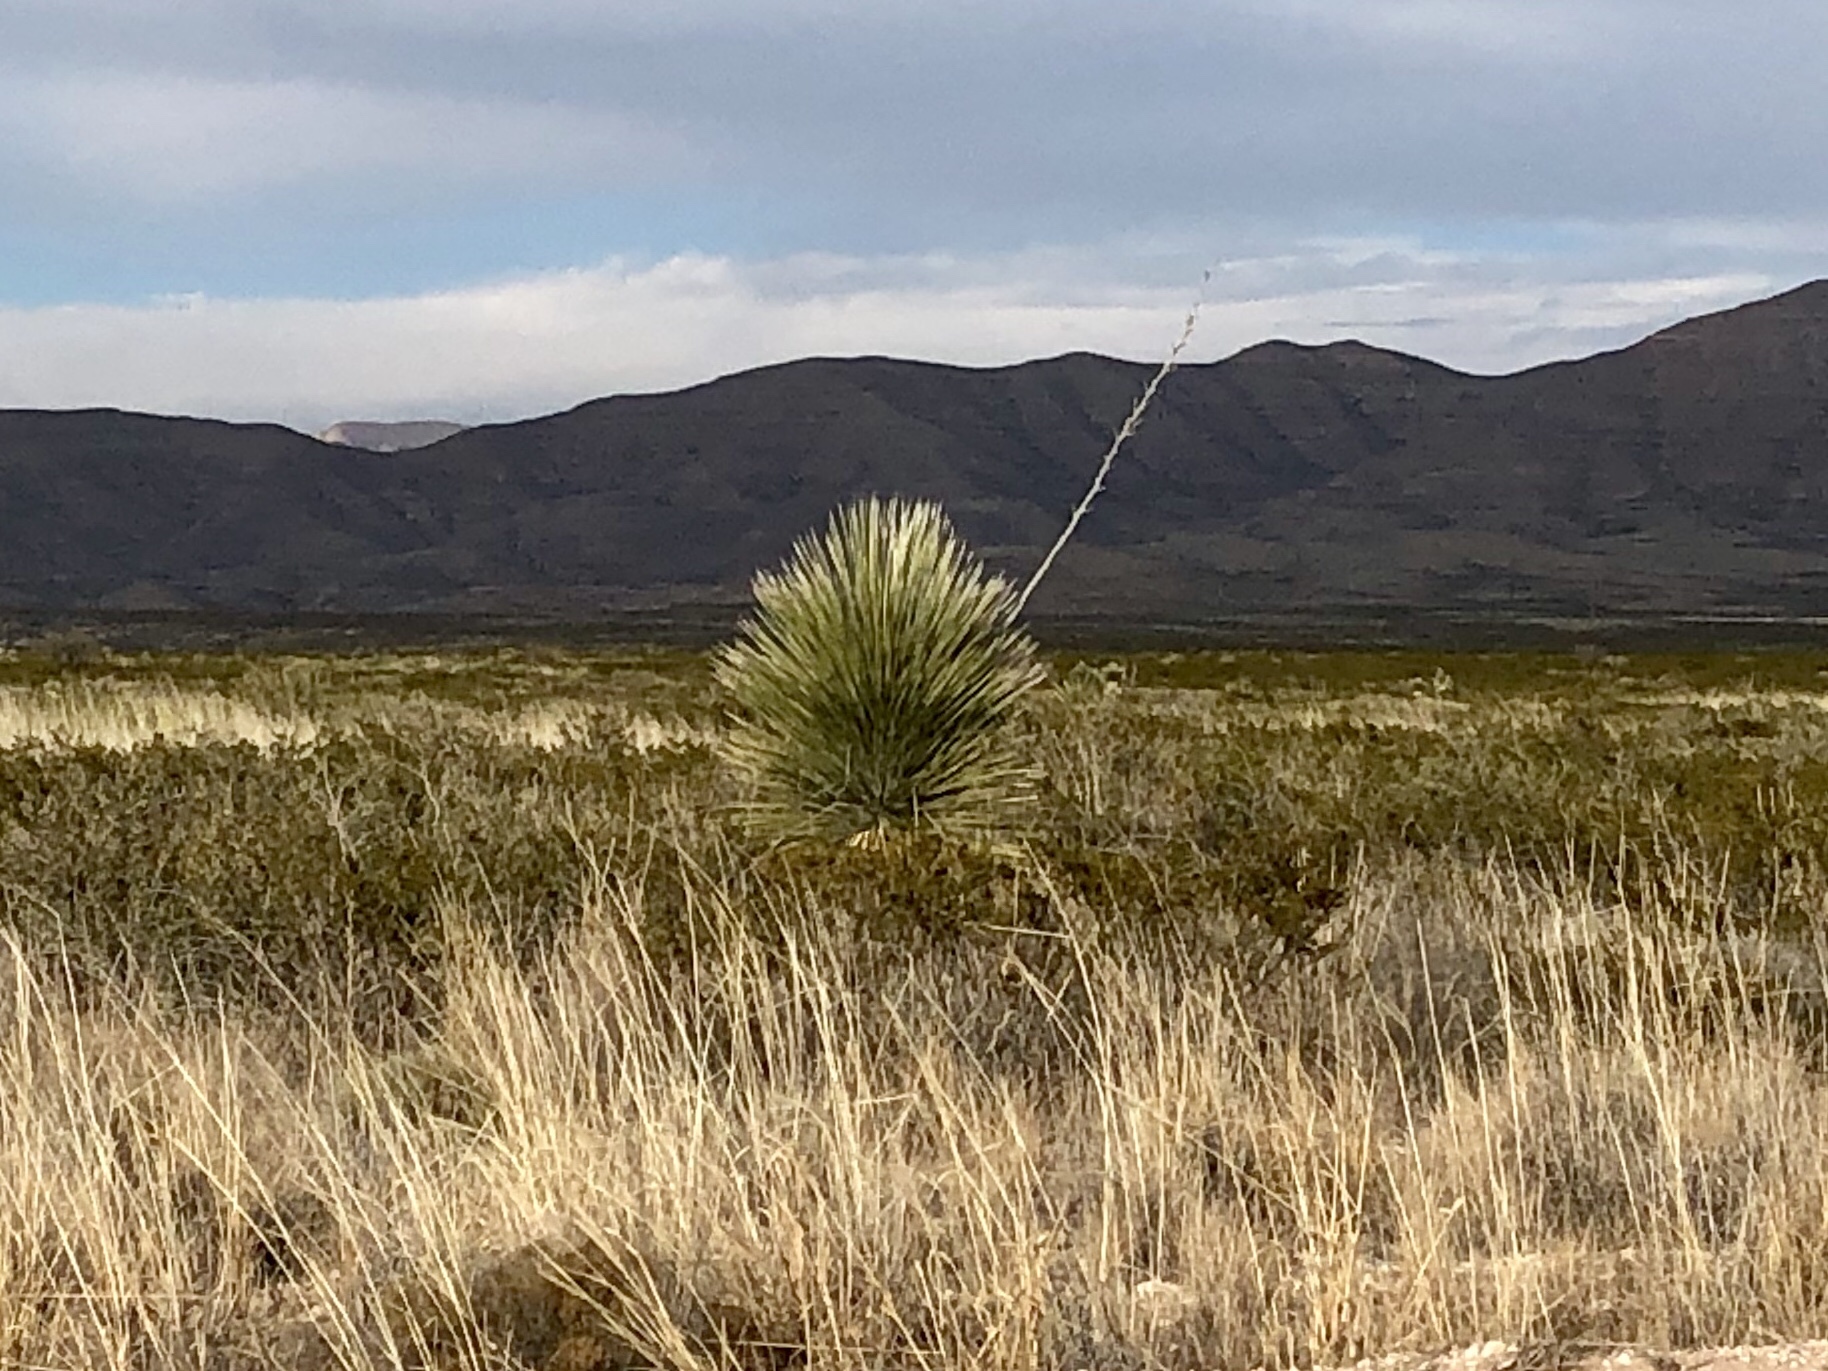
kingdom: Plantae
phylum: Tracheophyta
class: Liliopsida
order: Asparagales
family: Asparagaceae
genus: Yucca
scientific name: Yucca elata
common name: Palmella
